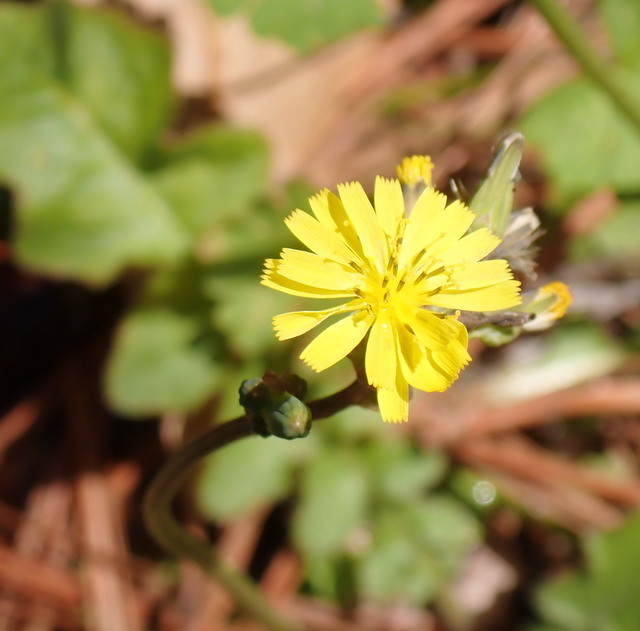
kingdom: Plantae
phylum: Tracheophyta
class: Magnoliopsida
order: Asterales
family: Asteraceae
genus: Youngia
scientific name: Youngia japonica
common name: Oriental false hawksbeard
